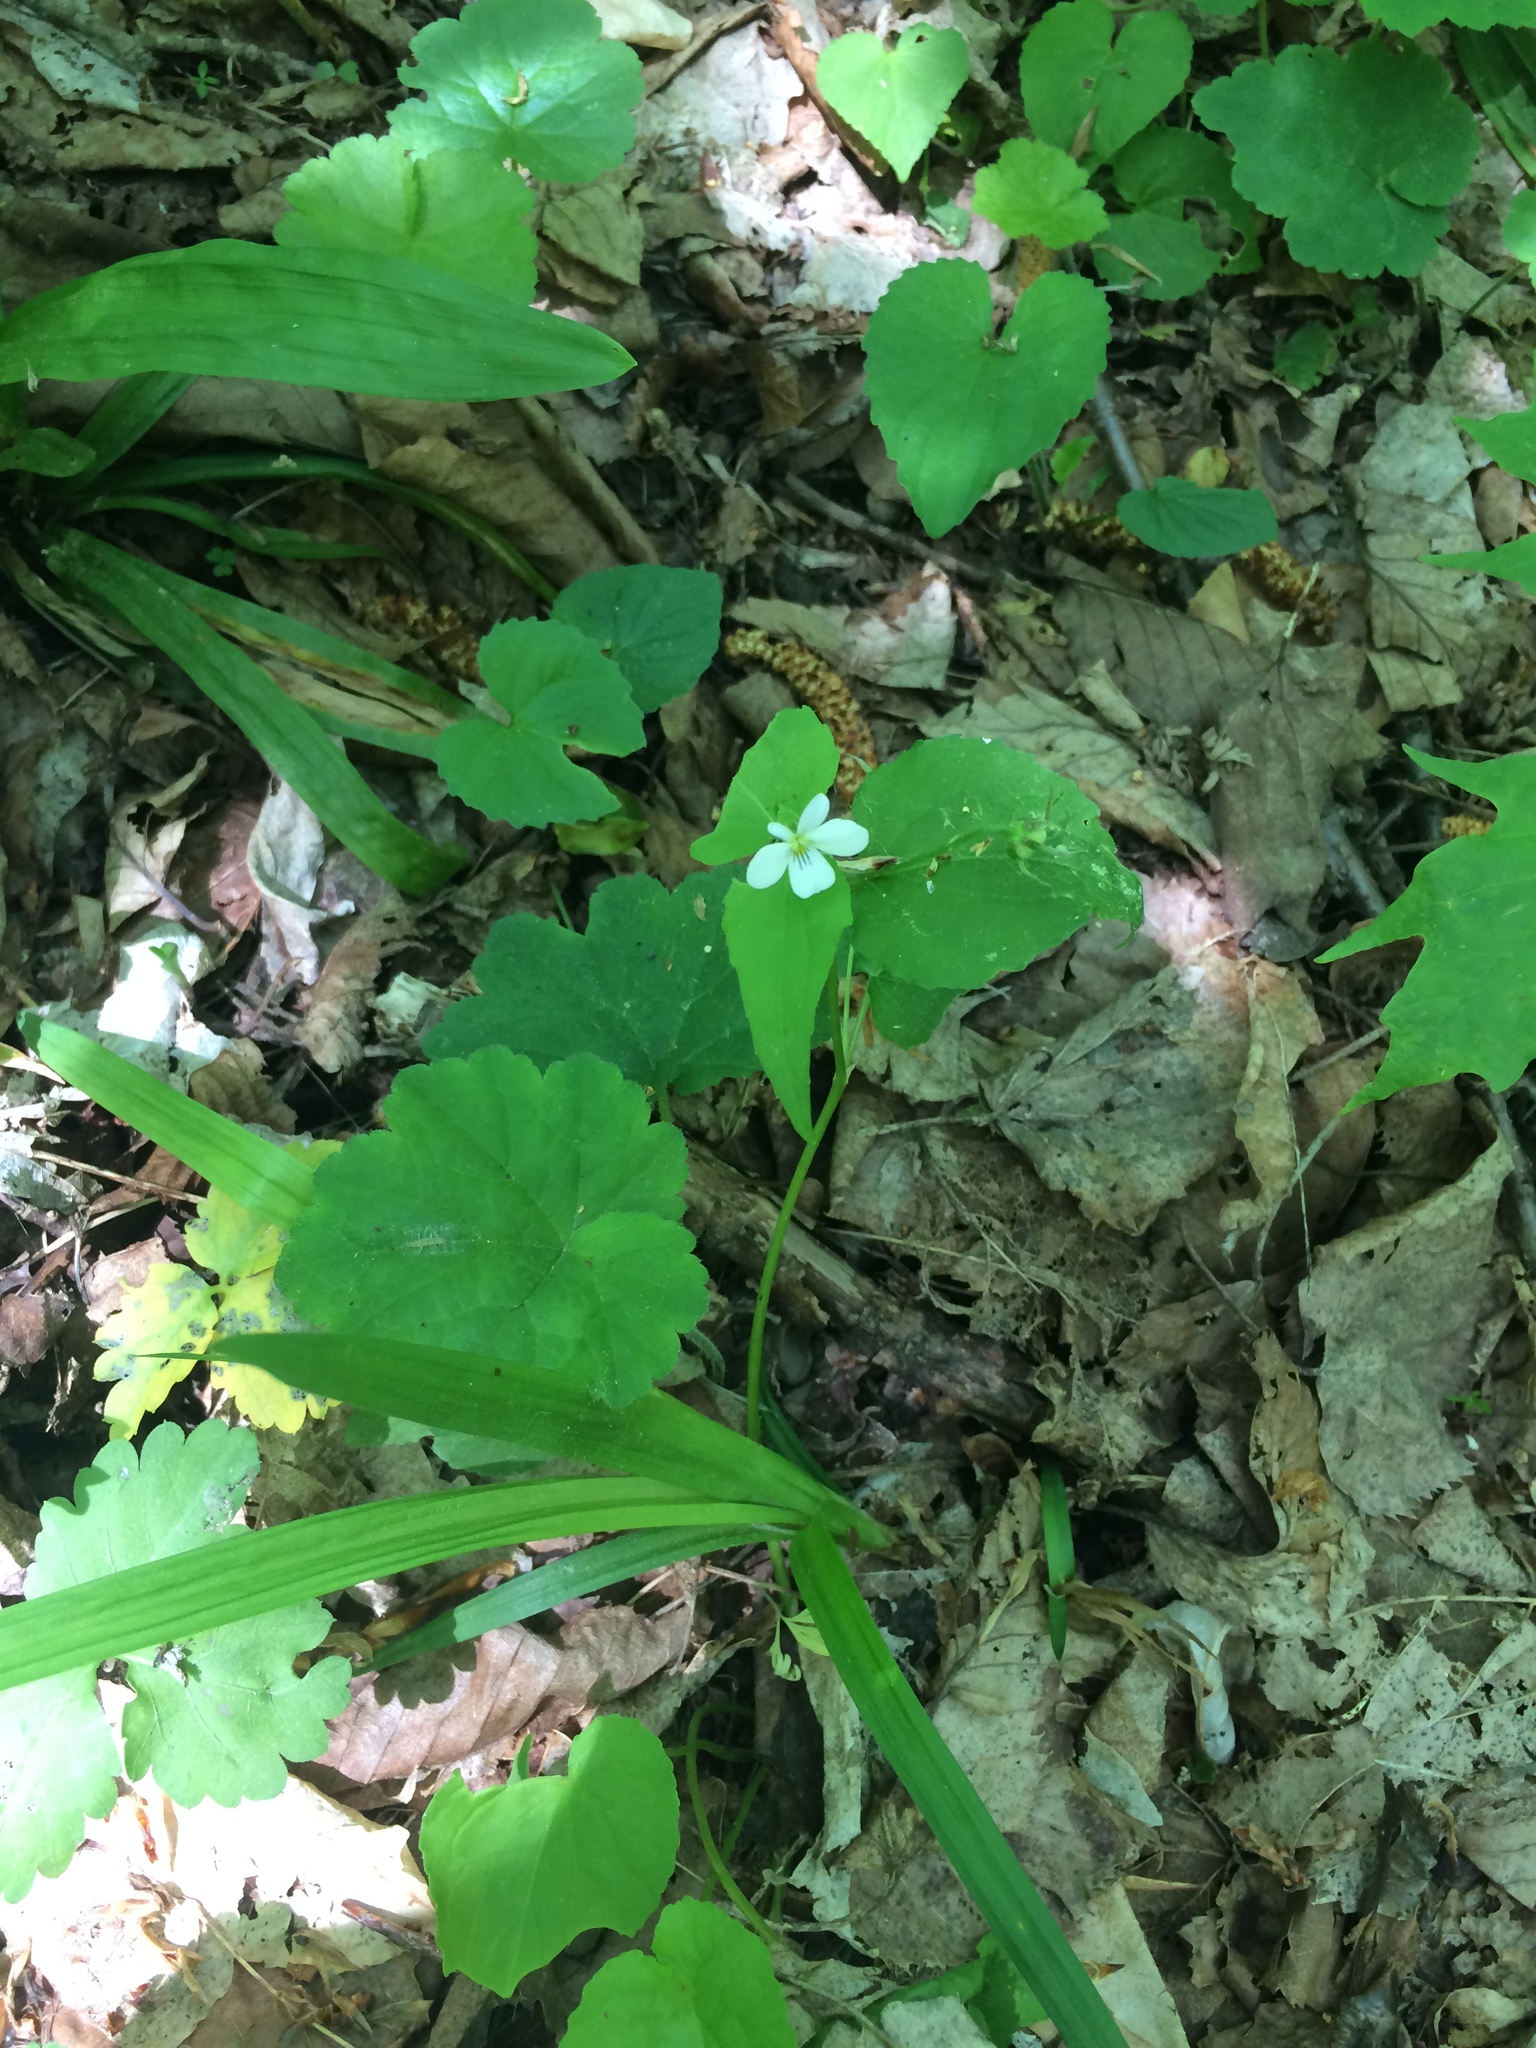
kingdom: Plantae
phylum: Tracheophyta
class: Magnoliopsida
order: Malpighiales
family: Violaceae
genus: Viola
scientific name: Viola canadensis
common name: Canada violet
